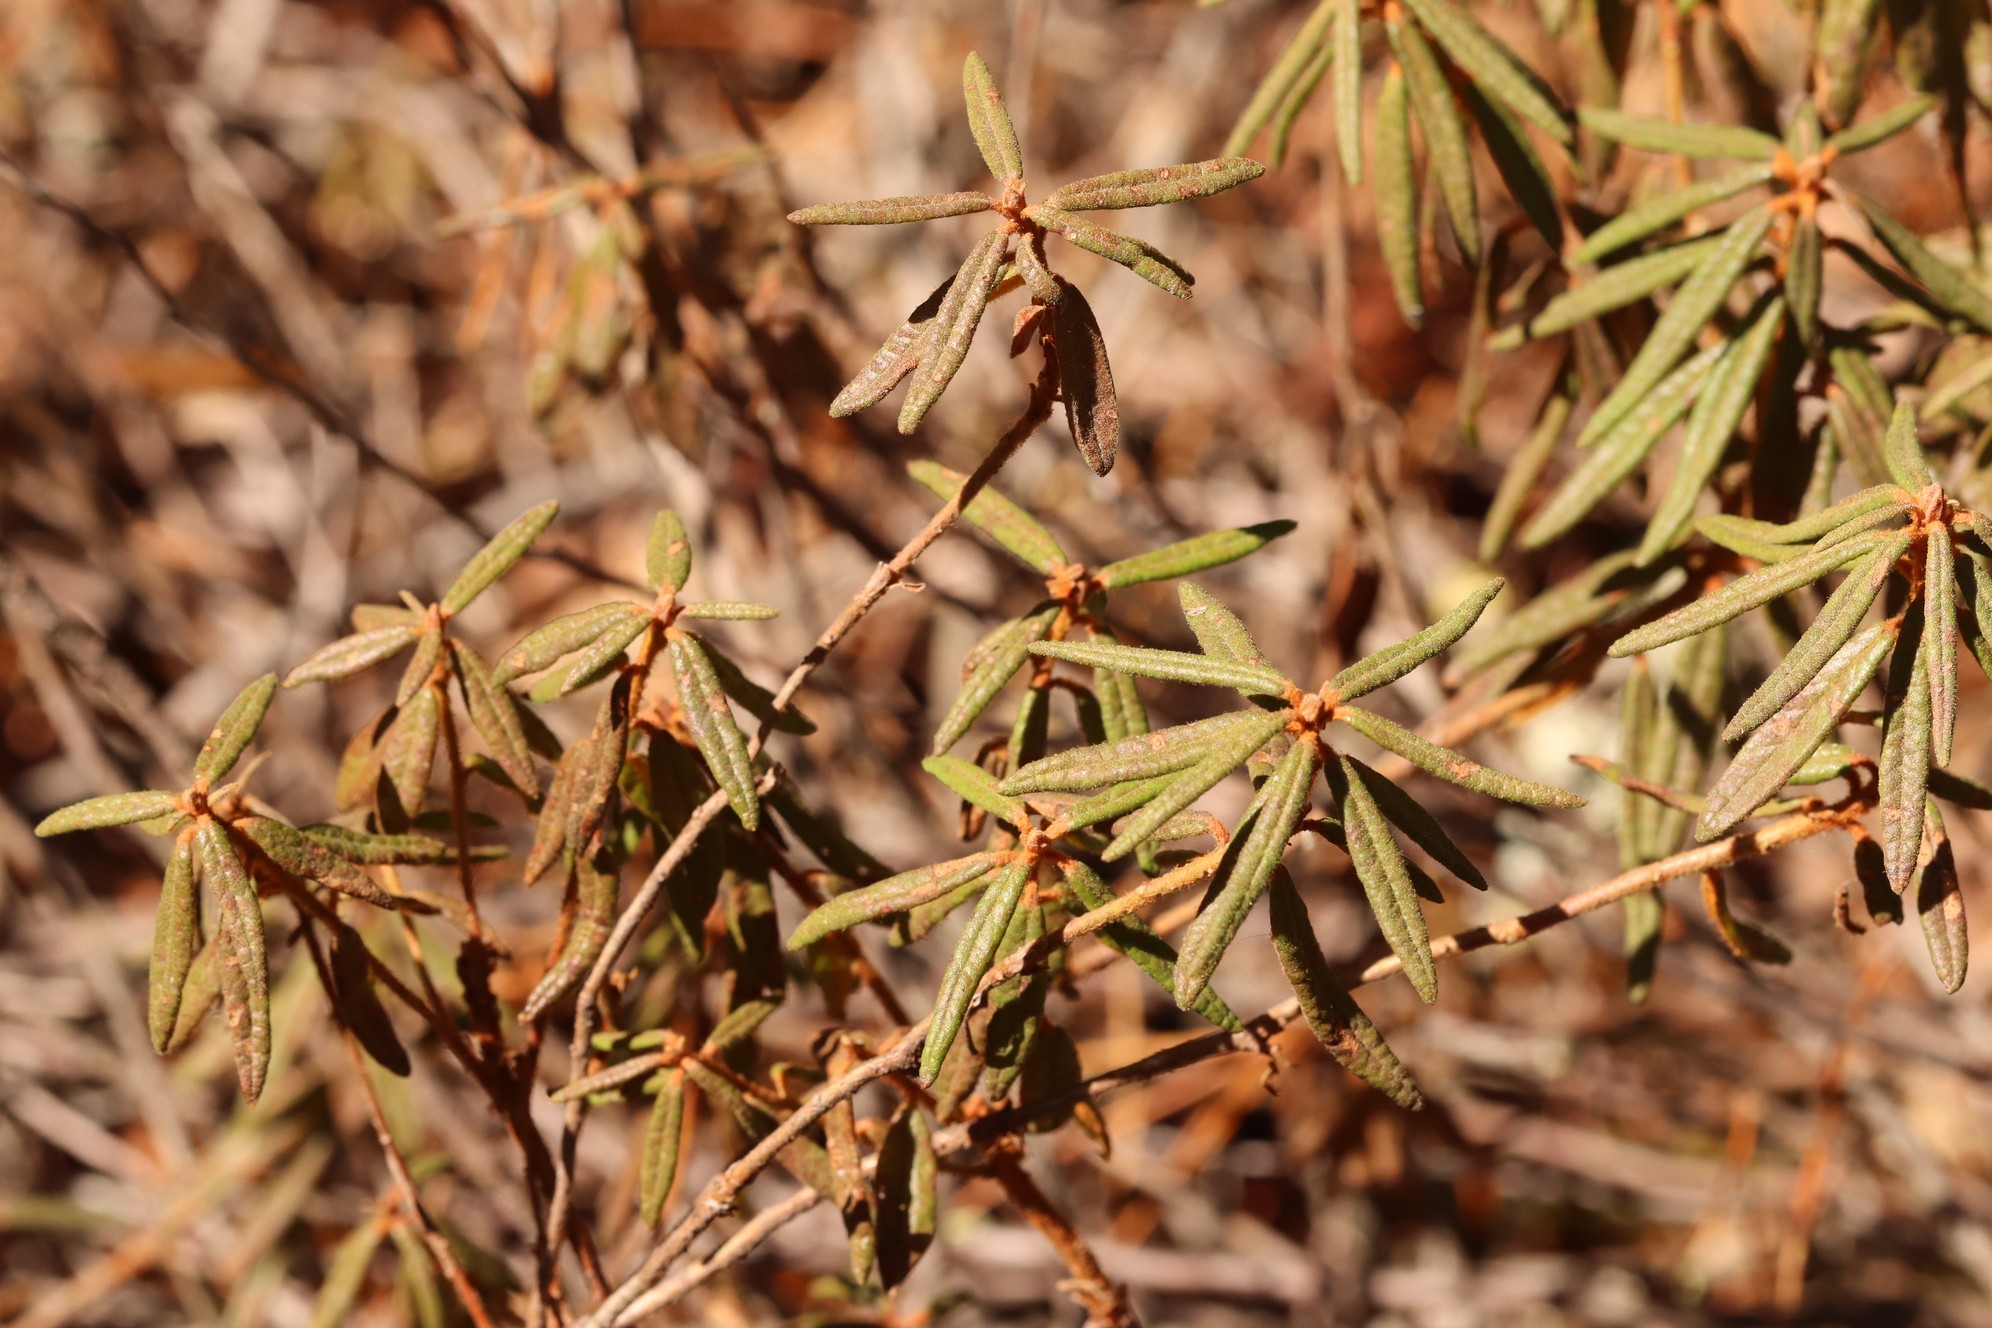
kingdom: Plantae
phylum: Tracheophyta
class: Magnoliopsida
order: Ericales
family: Ericaceae
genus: Rhododendron
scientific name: Rhododendron tomentosum
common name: Marsh labrador tea
